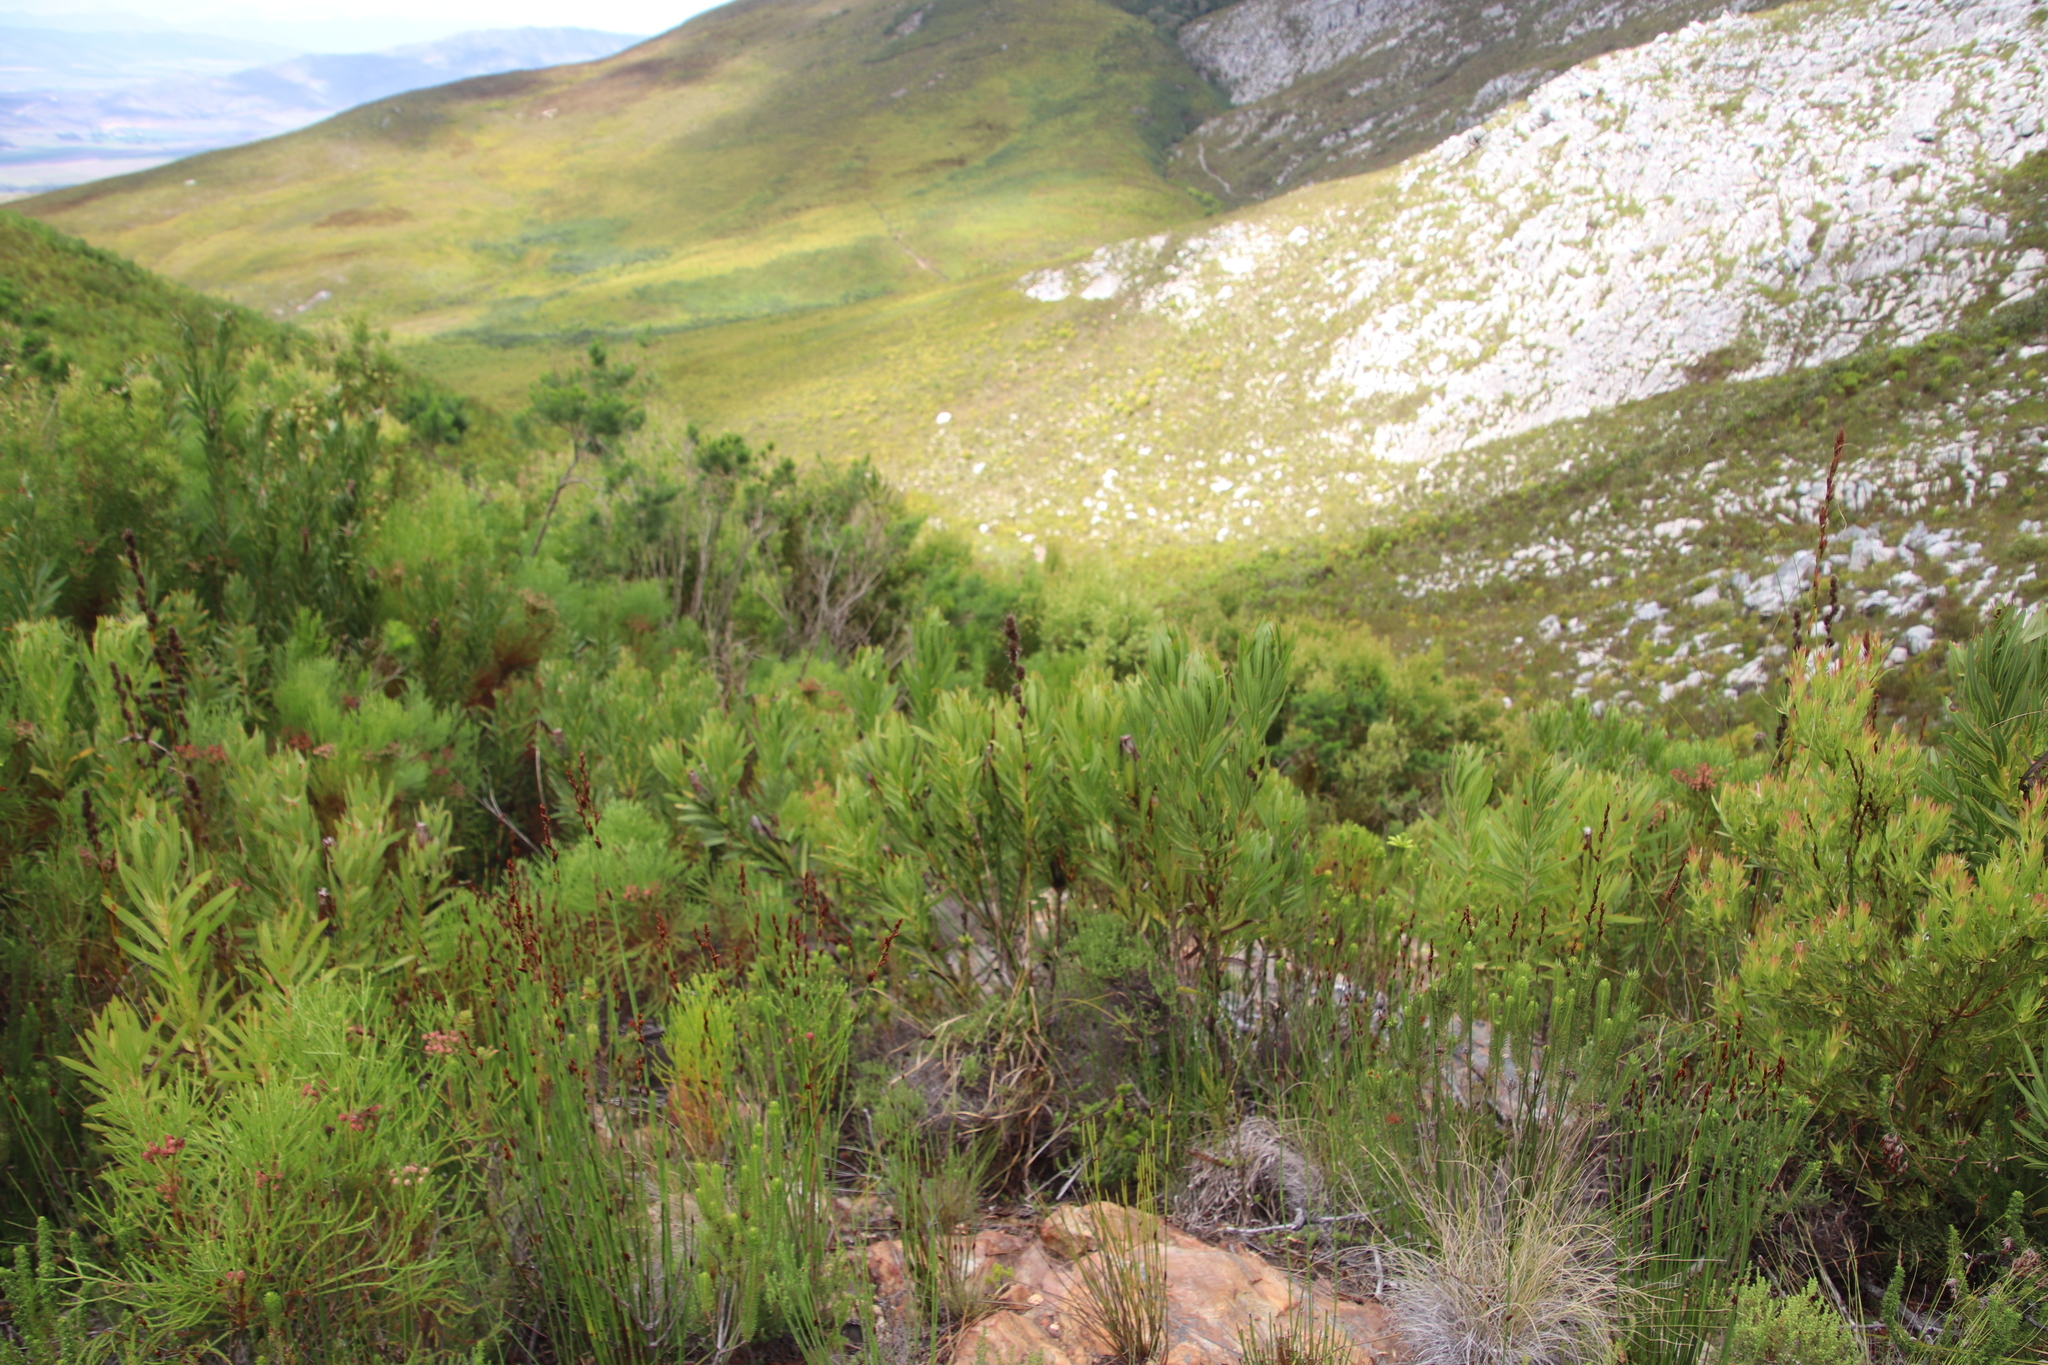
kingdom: Plantae
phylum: Tracheophyta
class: Magnoliopsida
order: Proteales
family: Proteaceae
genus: Protea
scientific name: Protea lepidocarpodendron
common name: Black-bearded protea
